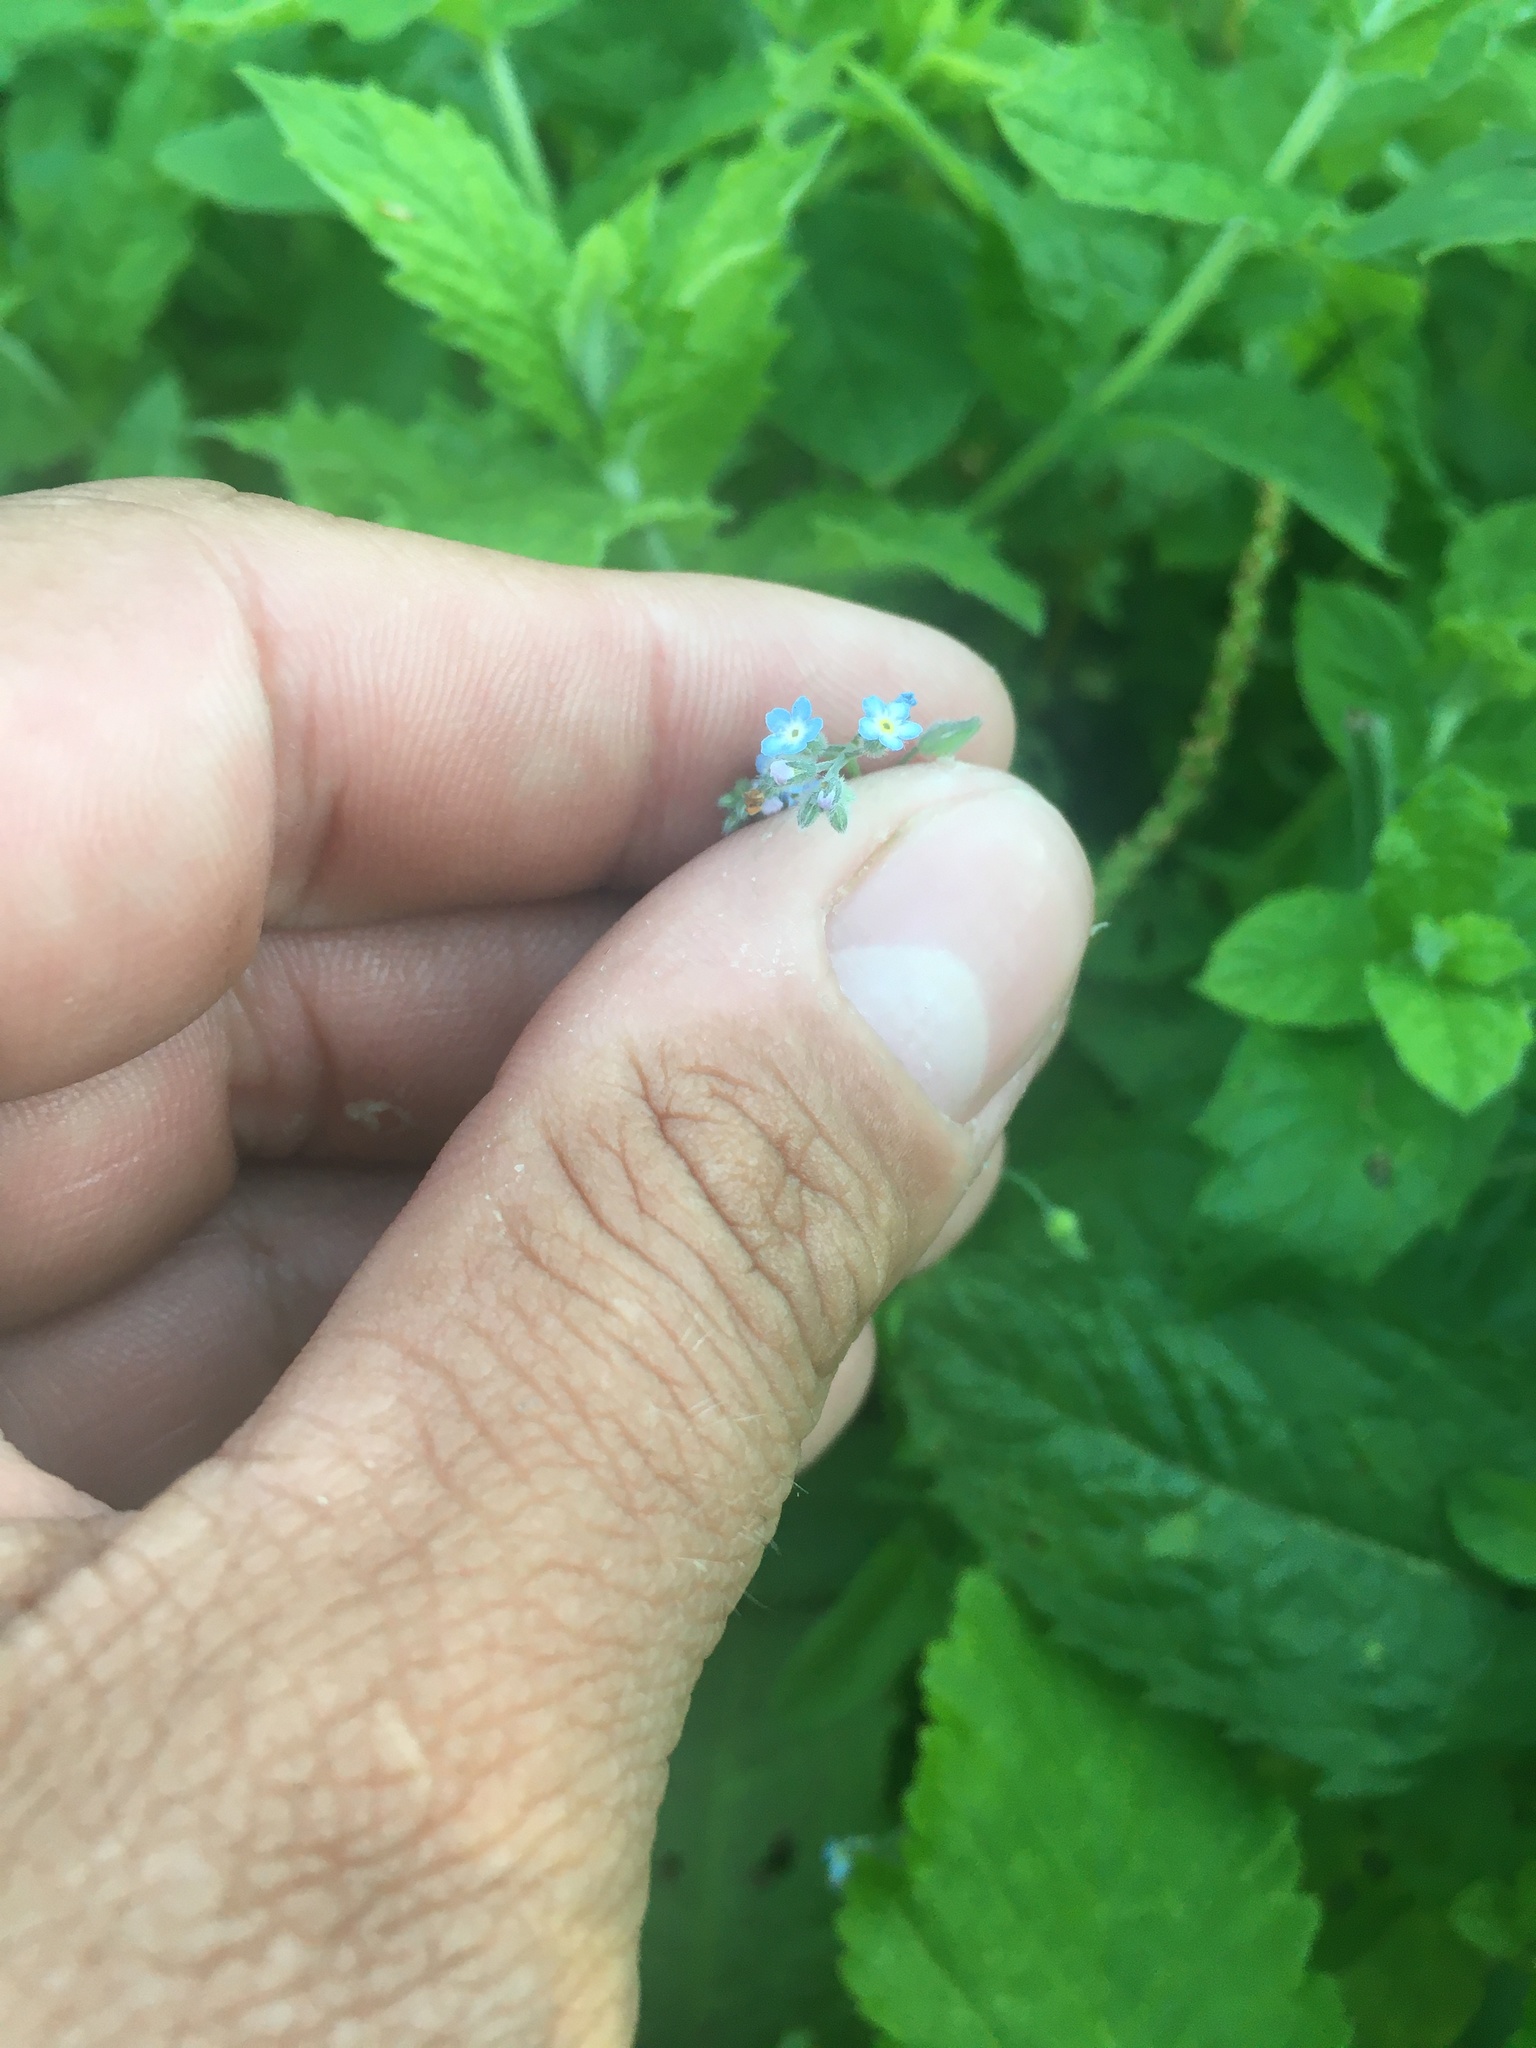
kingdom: Plantae
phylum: Tracheophyta
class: Magnoliopsida
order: Boraginales
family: Boraginaceae
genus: Myosotis
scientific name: Myosotis arvensis
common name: Field forget-me-not
